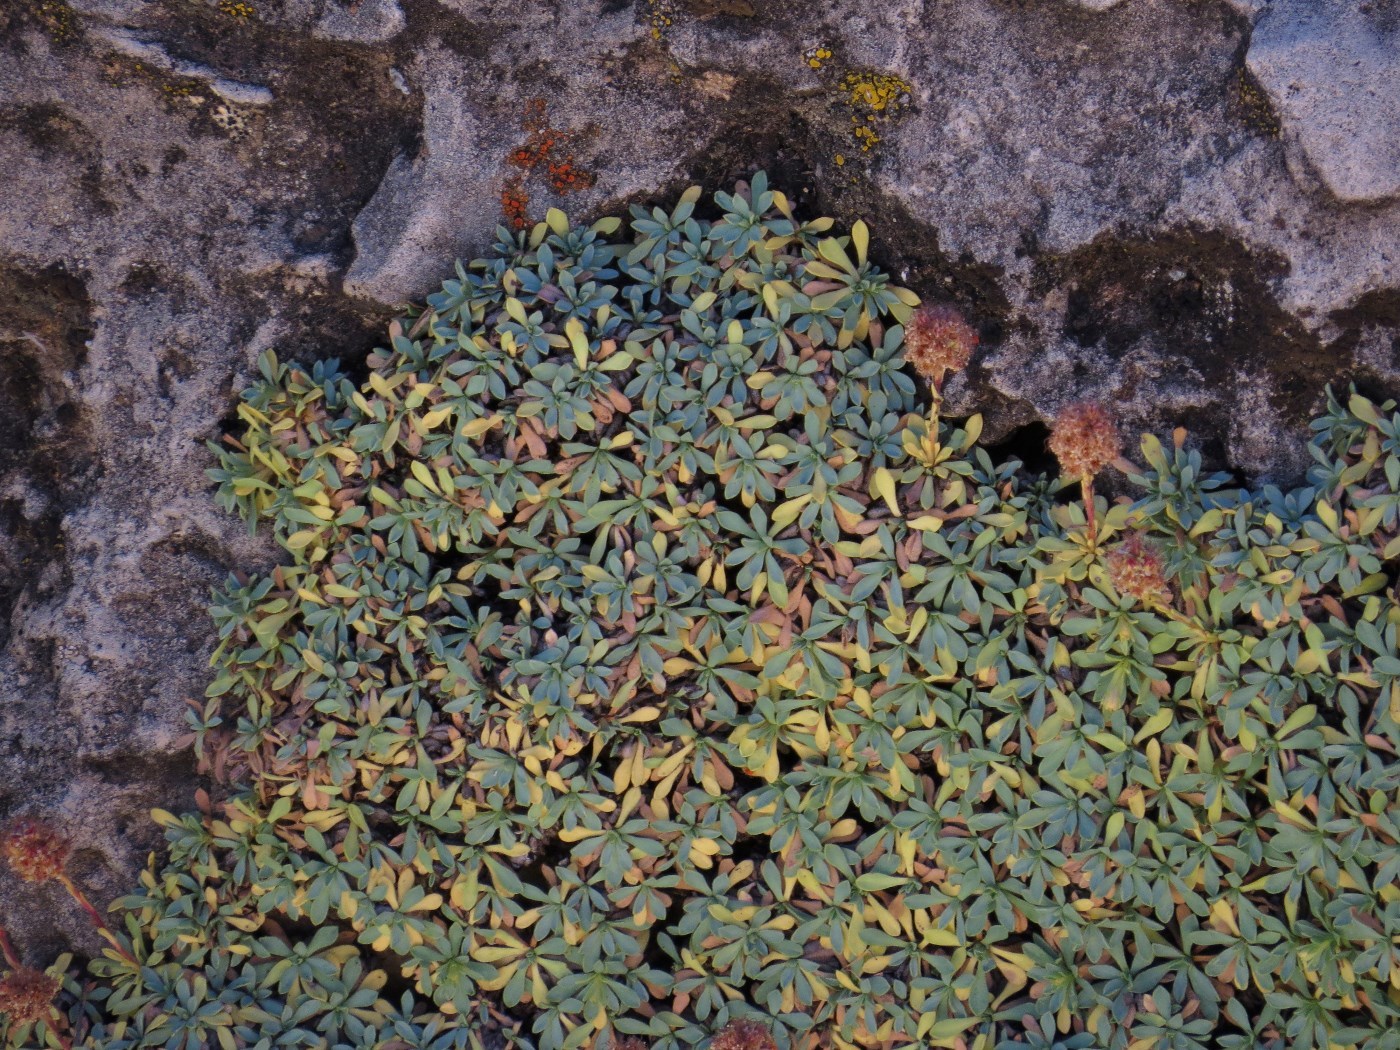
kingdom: Plantae
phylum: Tracheophyta
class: Magnoliopsida
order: Rosales
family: Rosaceae
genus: Petrophytum
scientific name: Petrophytum caespitosum
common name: Mat rockspirea
